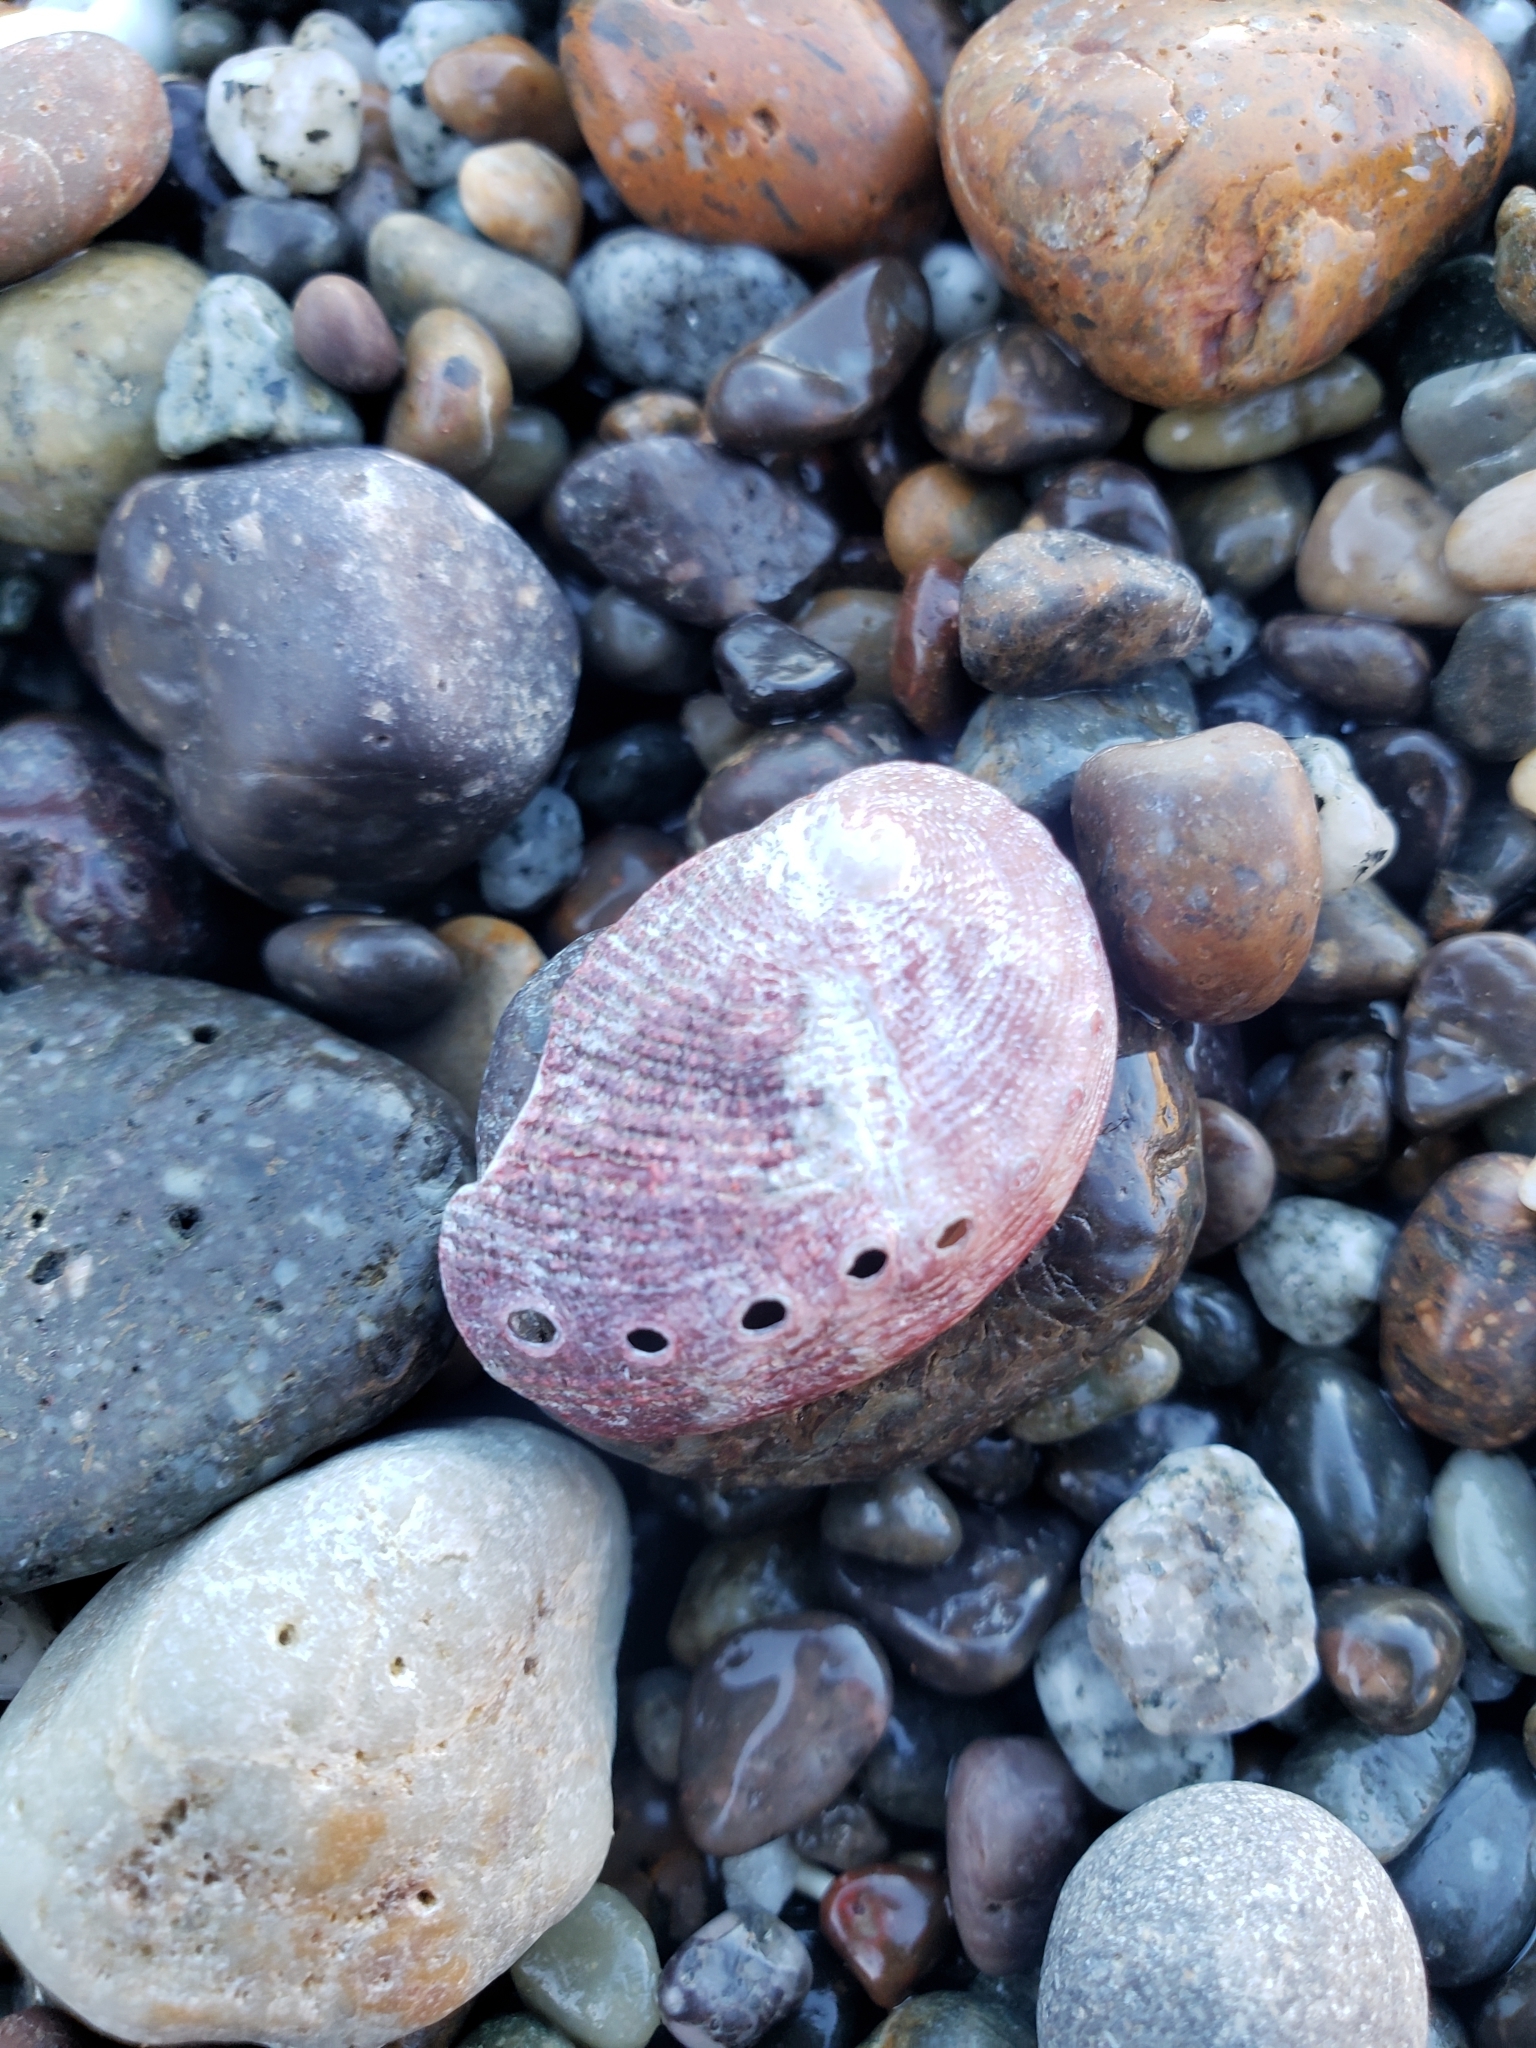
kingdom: Animalia
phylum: Mollusca
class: Gastropoda
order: Lepetellida
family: Haliotidae
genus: Haliotis
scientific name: Haliotis rufescens
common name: Red abalone
